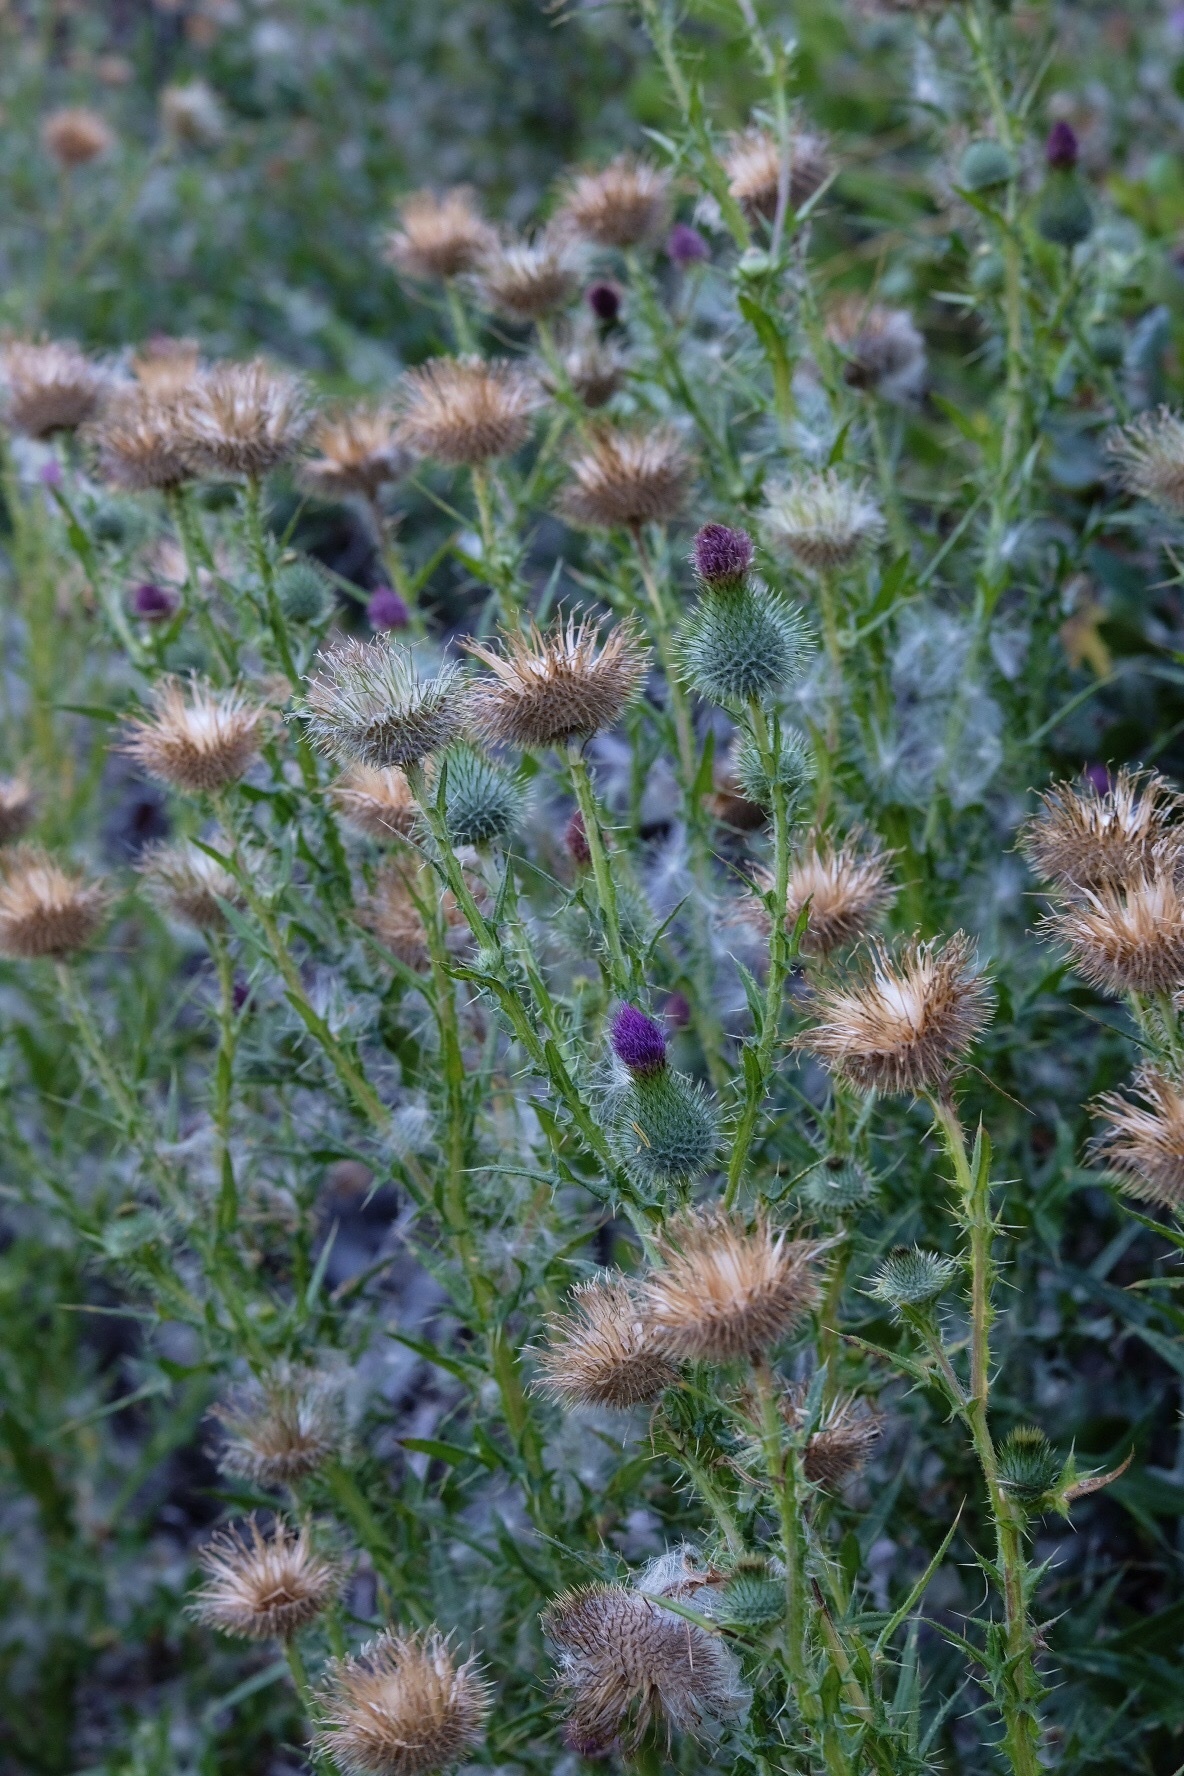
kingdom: Plantae
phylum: Tracheophyta
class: Magnoliopsida
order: Asterales
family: Asteraceae
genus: Cirsium
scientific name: Cirsium vulgare
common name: Bull thistle
